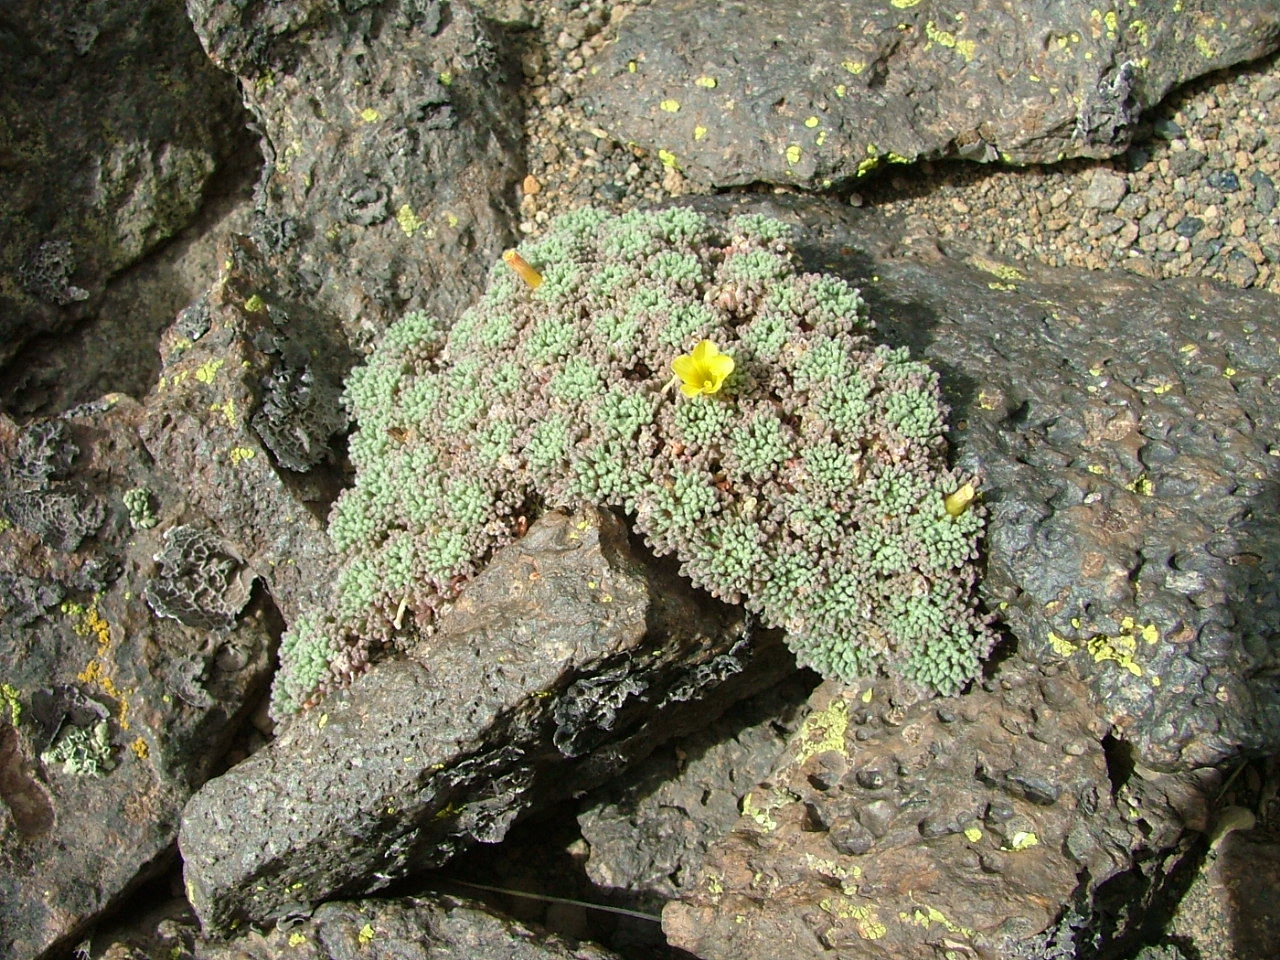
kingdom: Plantae
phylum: Tracheophyta
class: Magnoliopsida
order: Oxalidales
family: Oxalidaceae
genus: Oxalis
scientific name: Oxalis erythrorhiza
